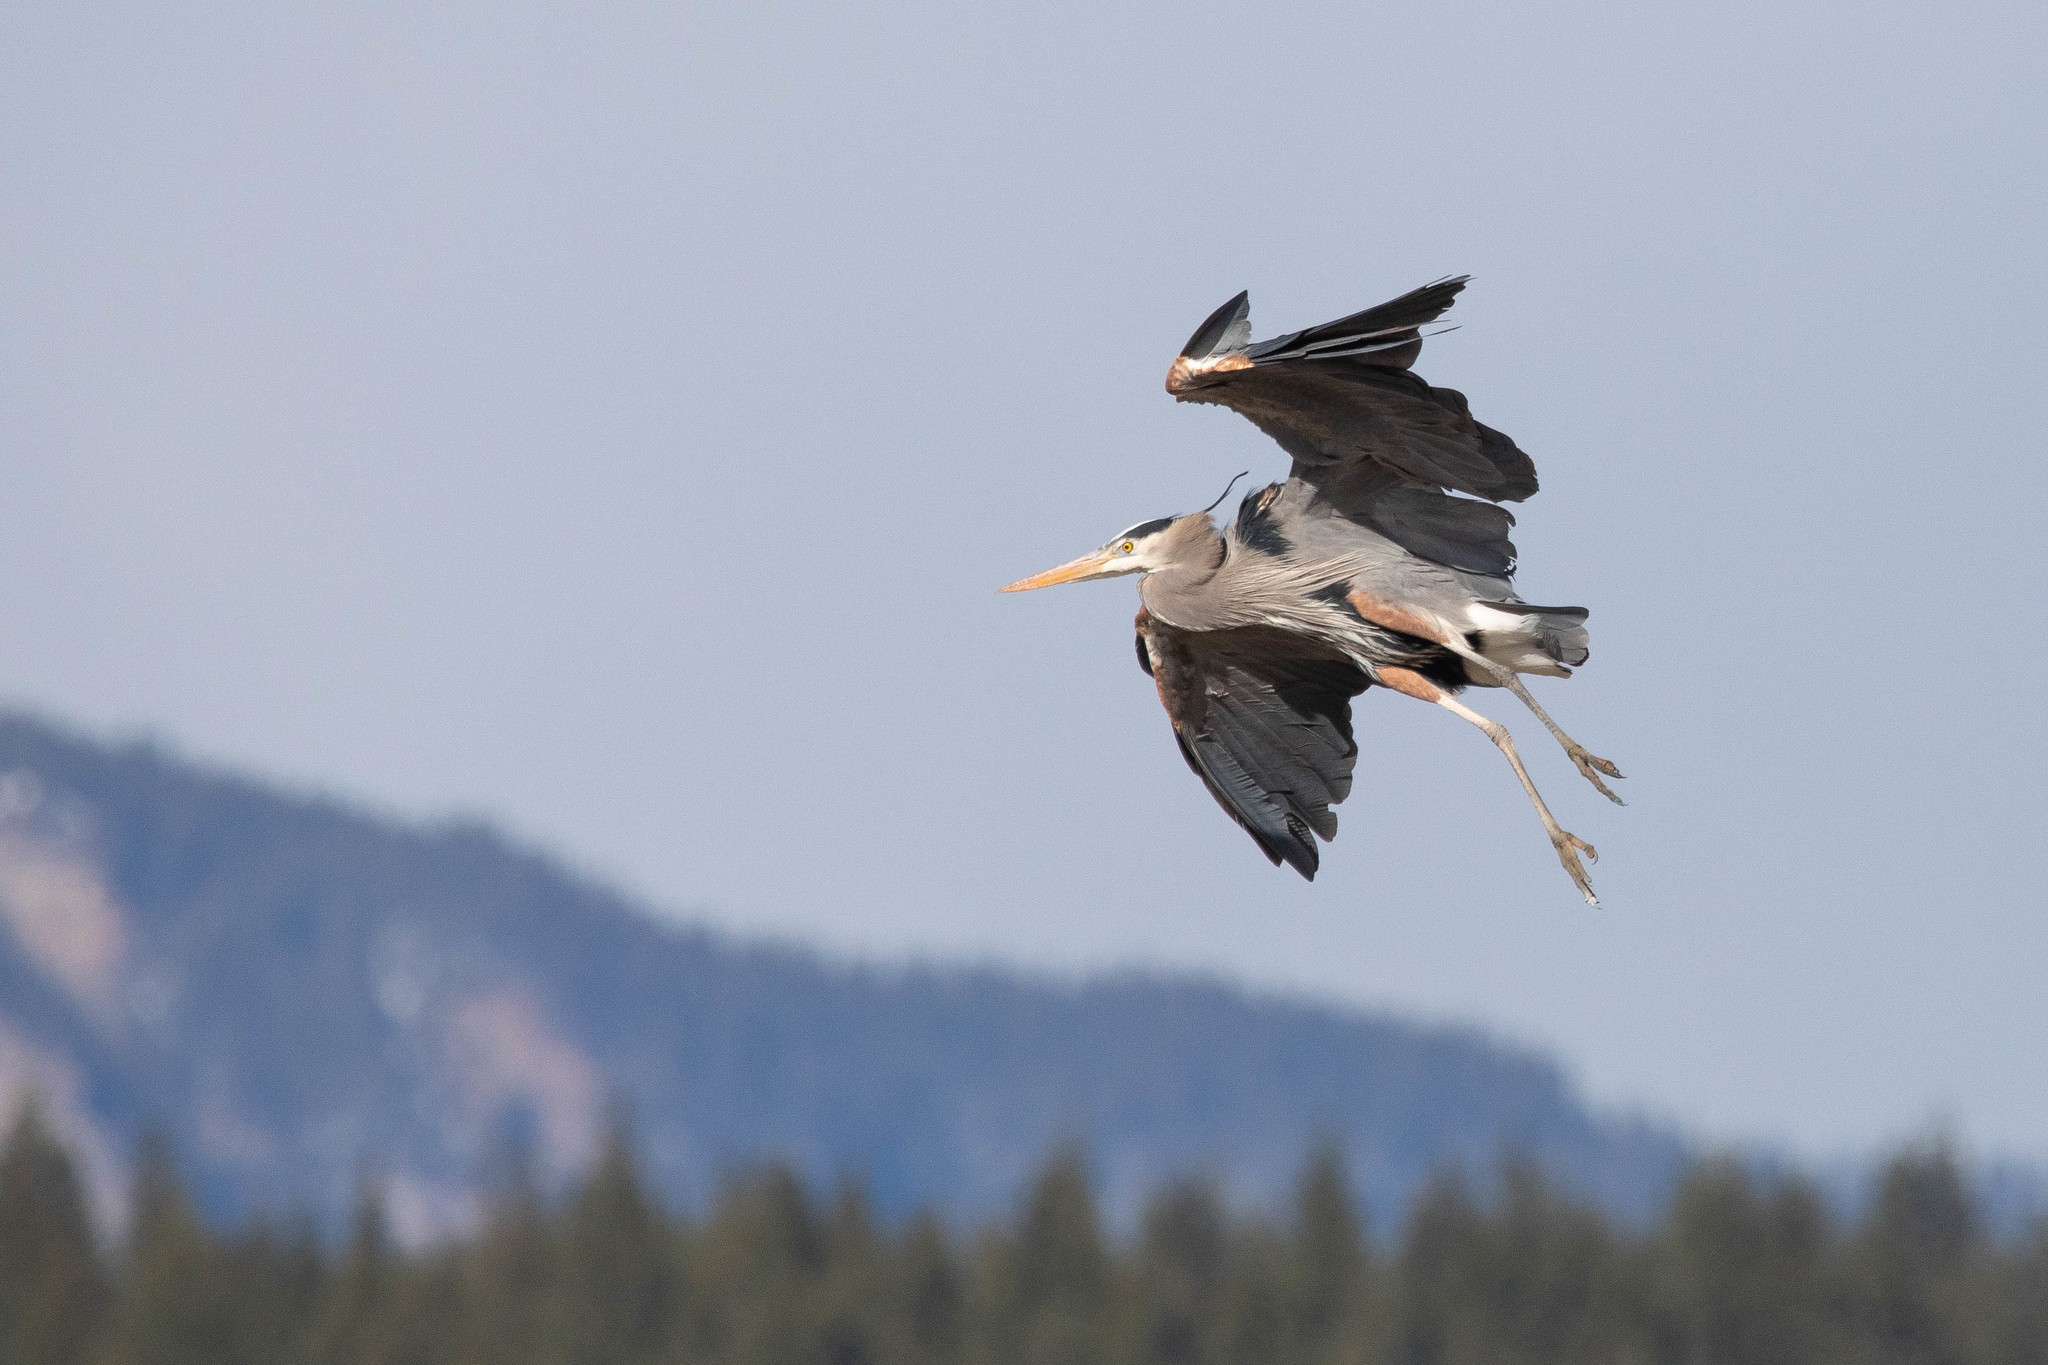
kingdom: Animalia
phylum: Chordata
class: Aves
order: Pelecaniformes
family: Ardeidae
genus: Ardea
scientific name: Ardea herodias
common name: Great blue heron
